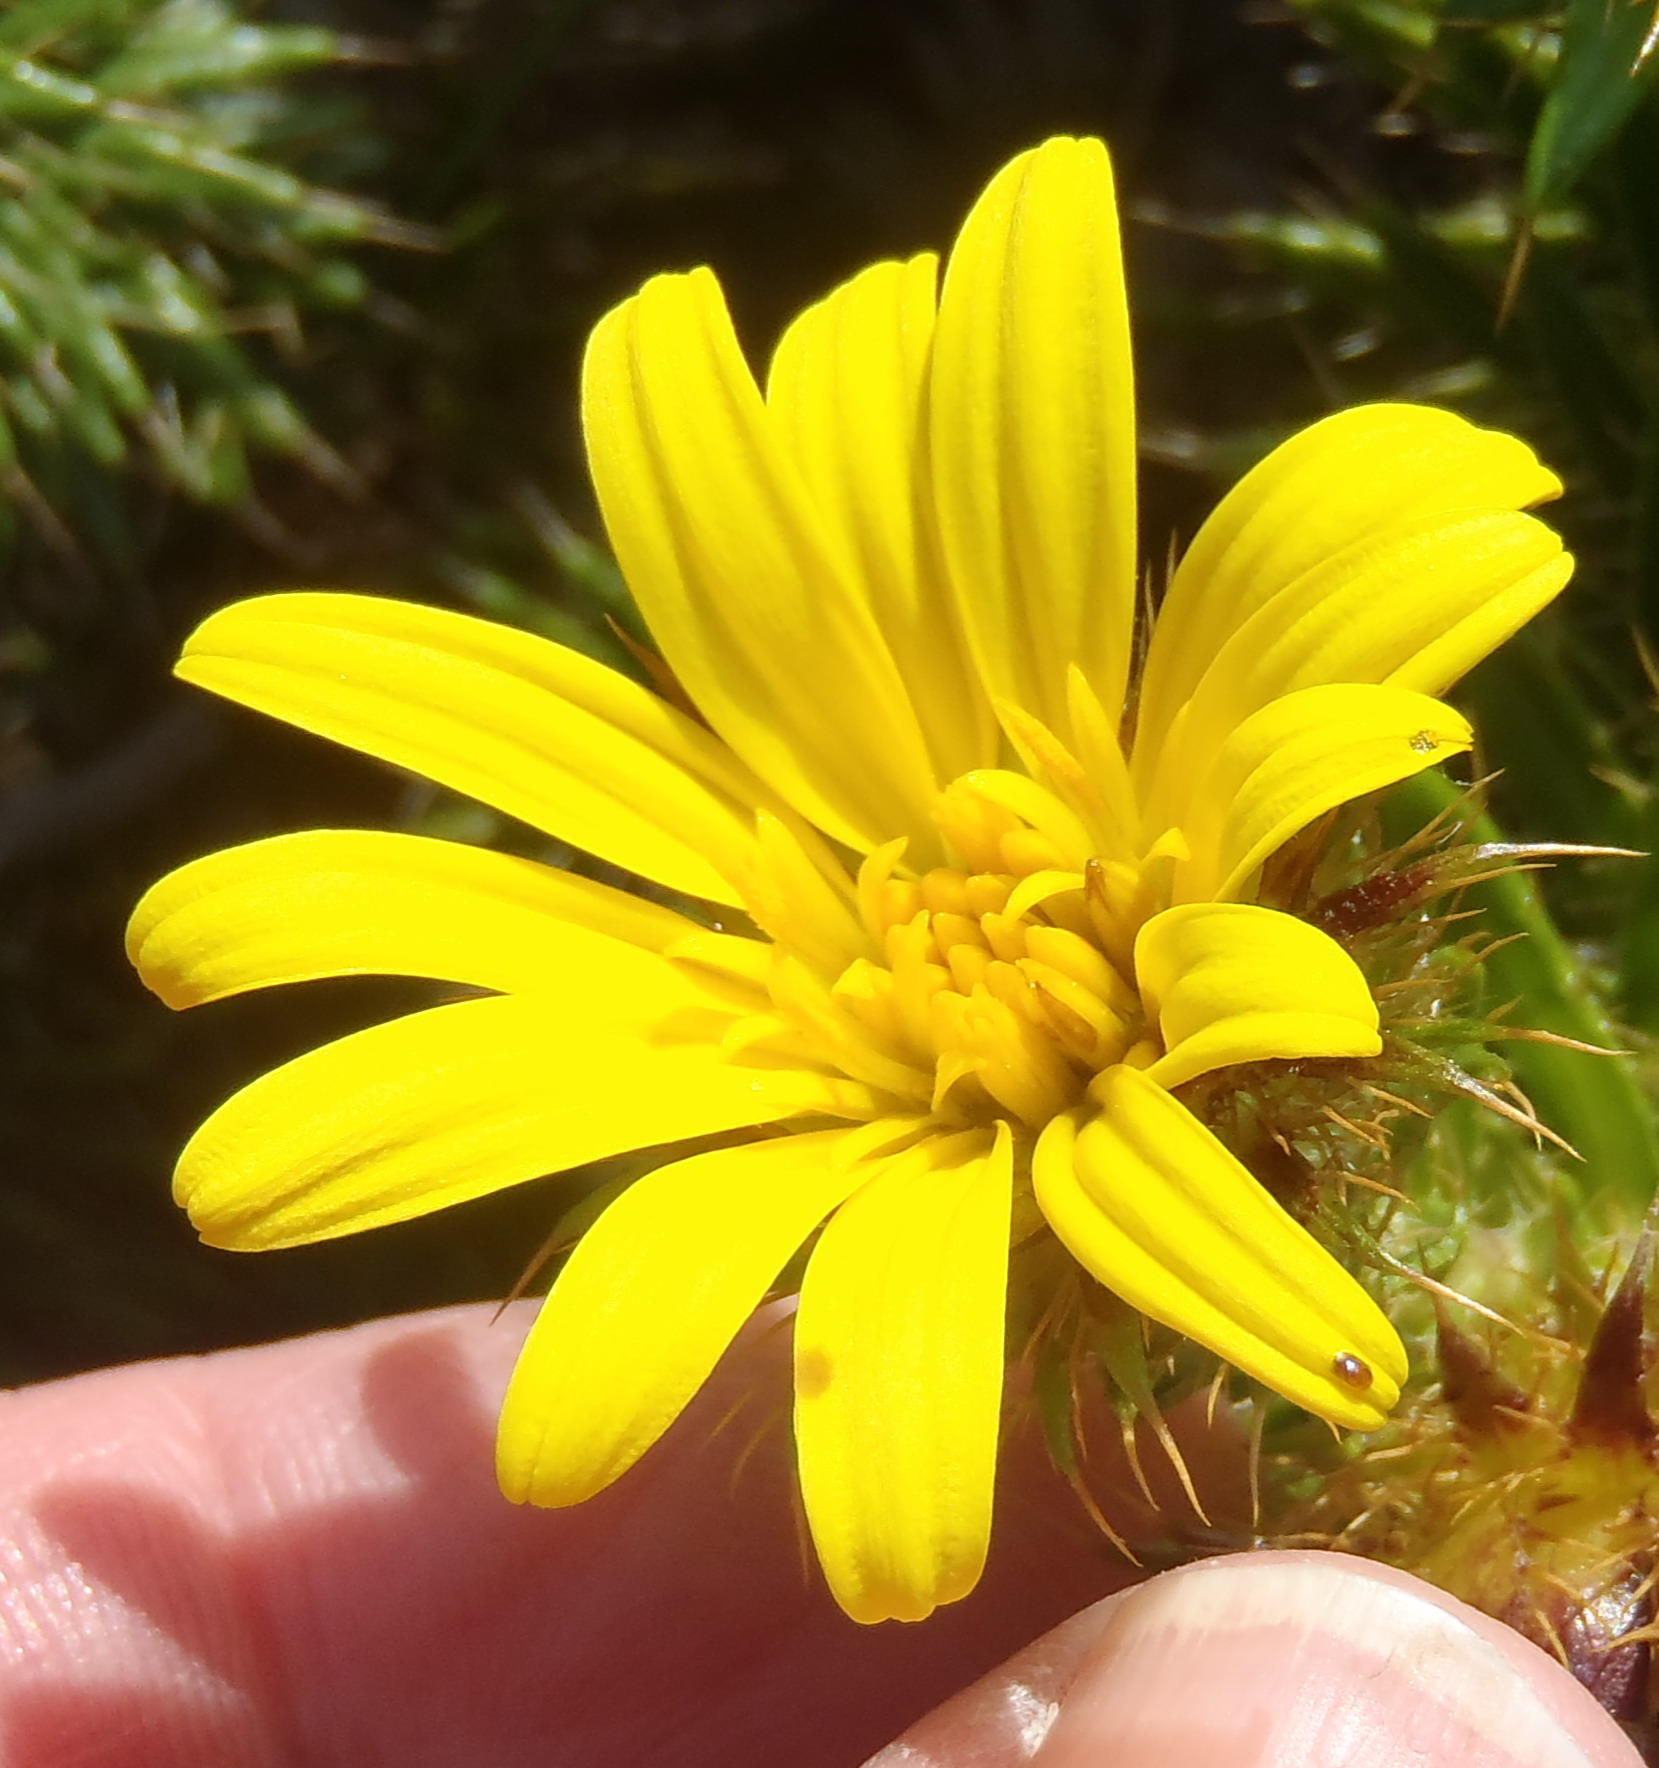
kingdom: Plantae
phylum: Tracheophyta
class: Magnoliopsida
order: Asterales
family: Asteraceae
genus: Cullumia
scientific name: Cullumia carlinoides
